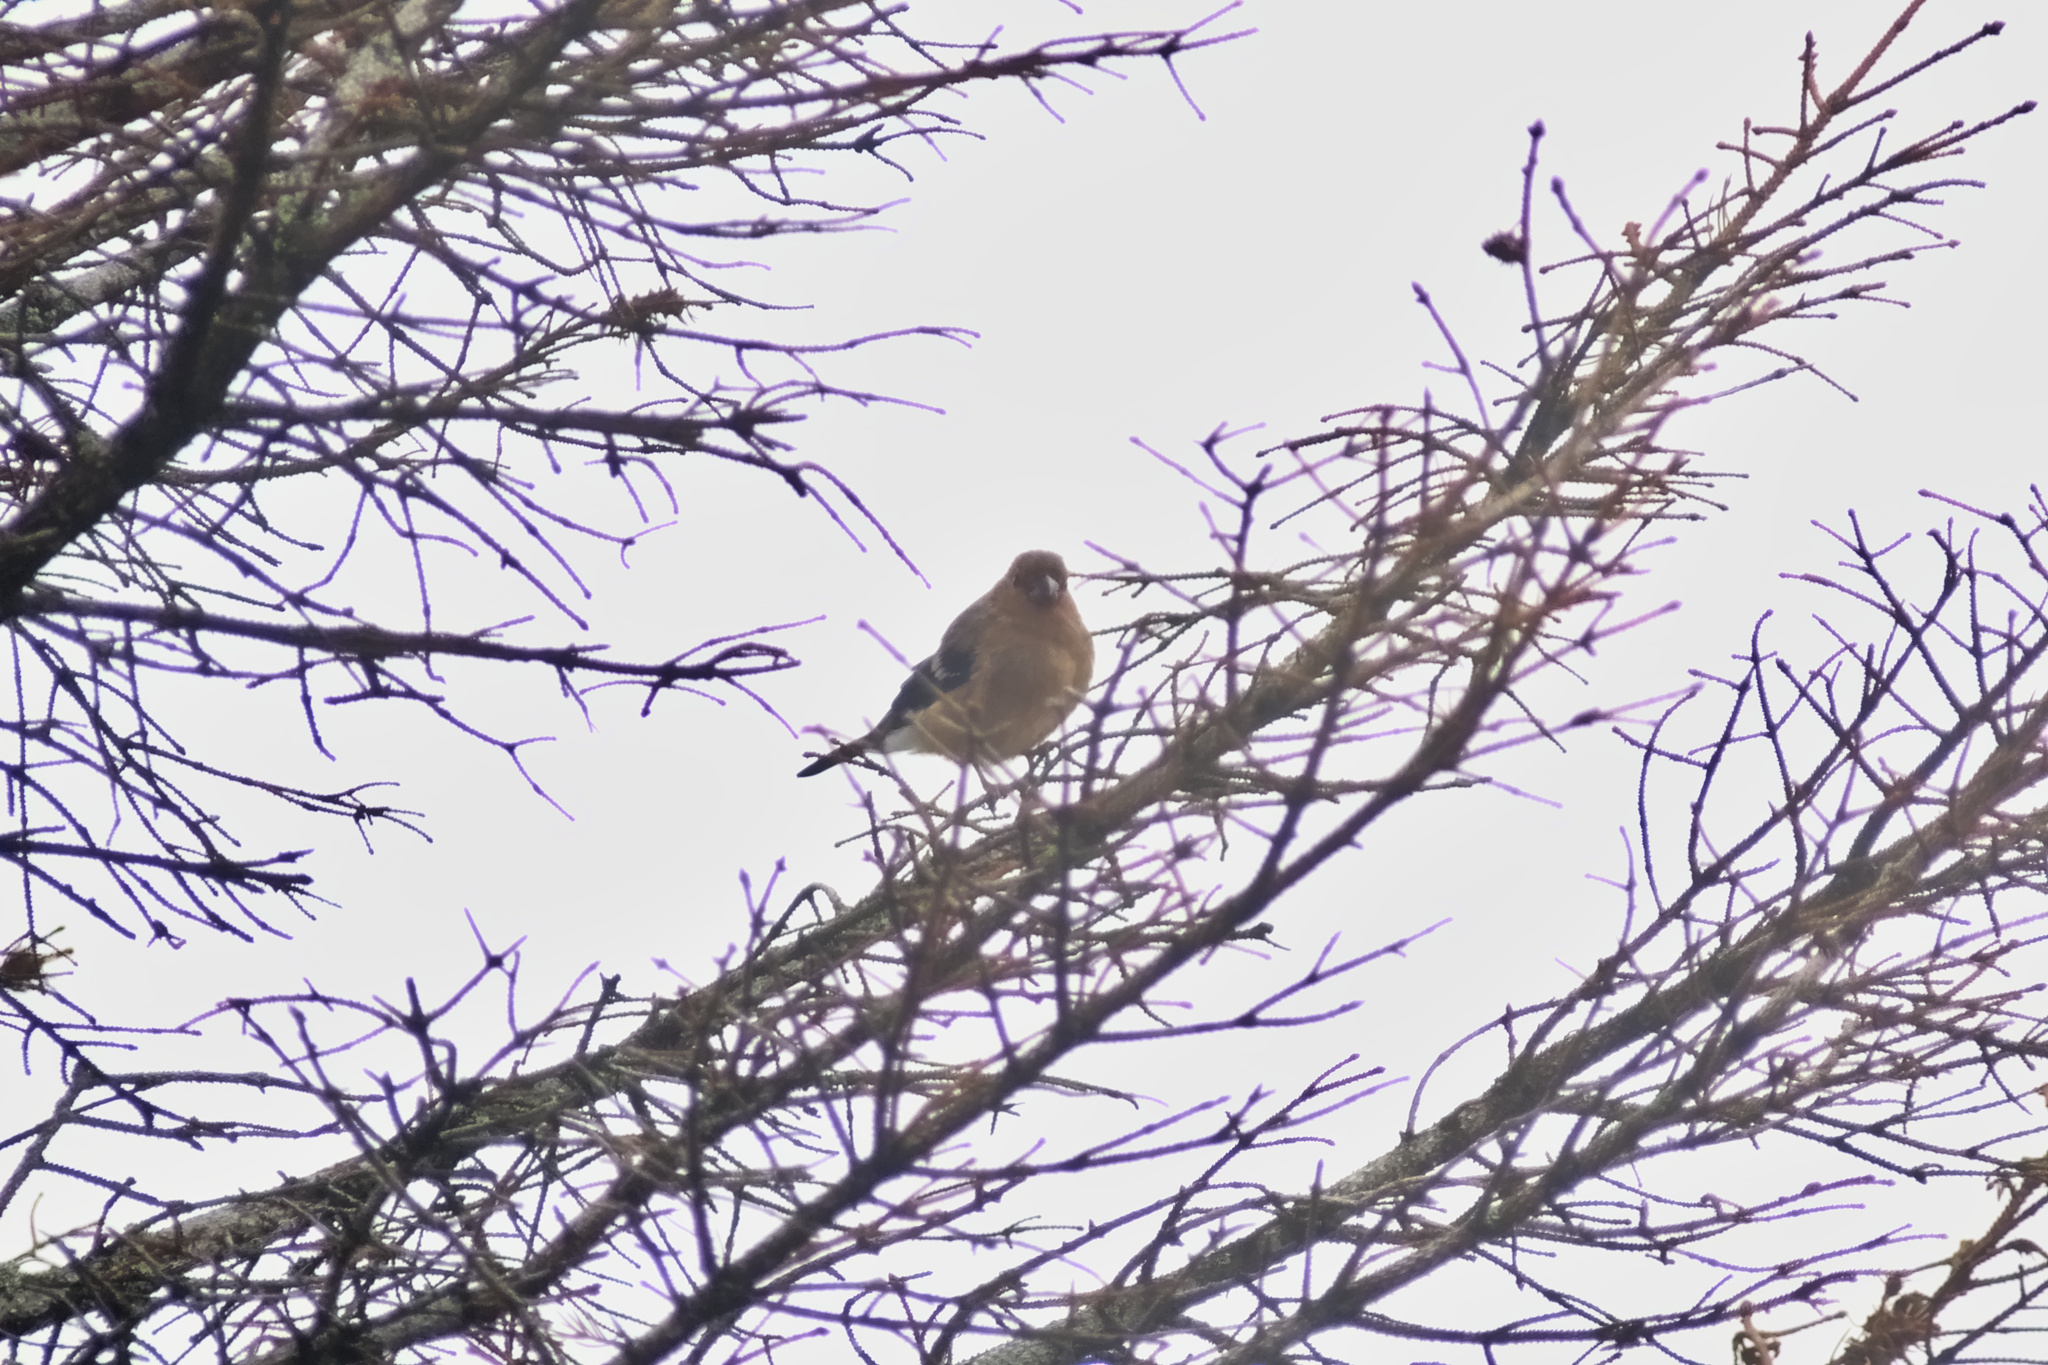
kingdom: Animalia
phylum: Chordata
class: Aves
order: Passeriformes
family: Fringillidae
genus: Fringilla
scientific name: Fringilla coelebs
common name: Common chaffinch
